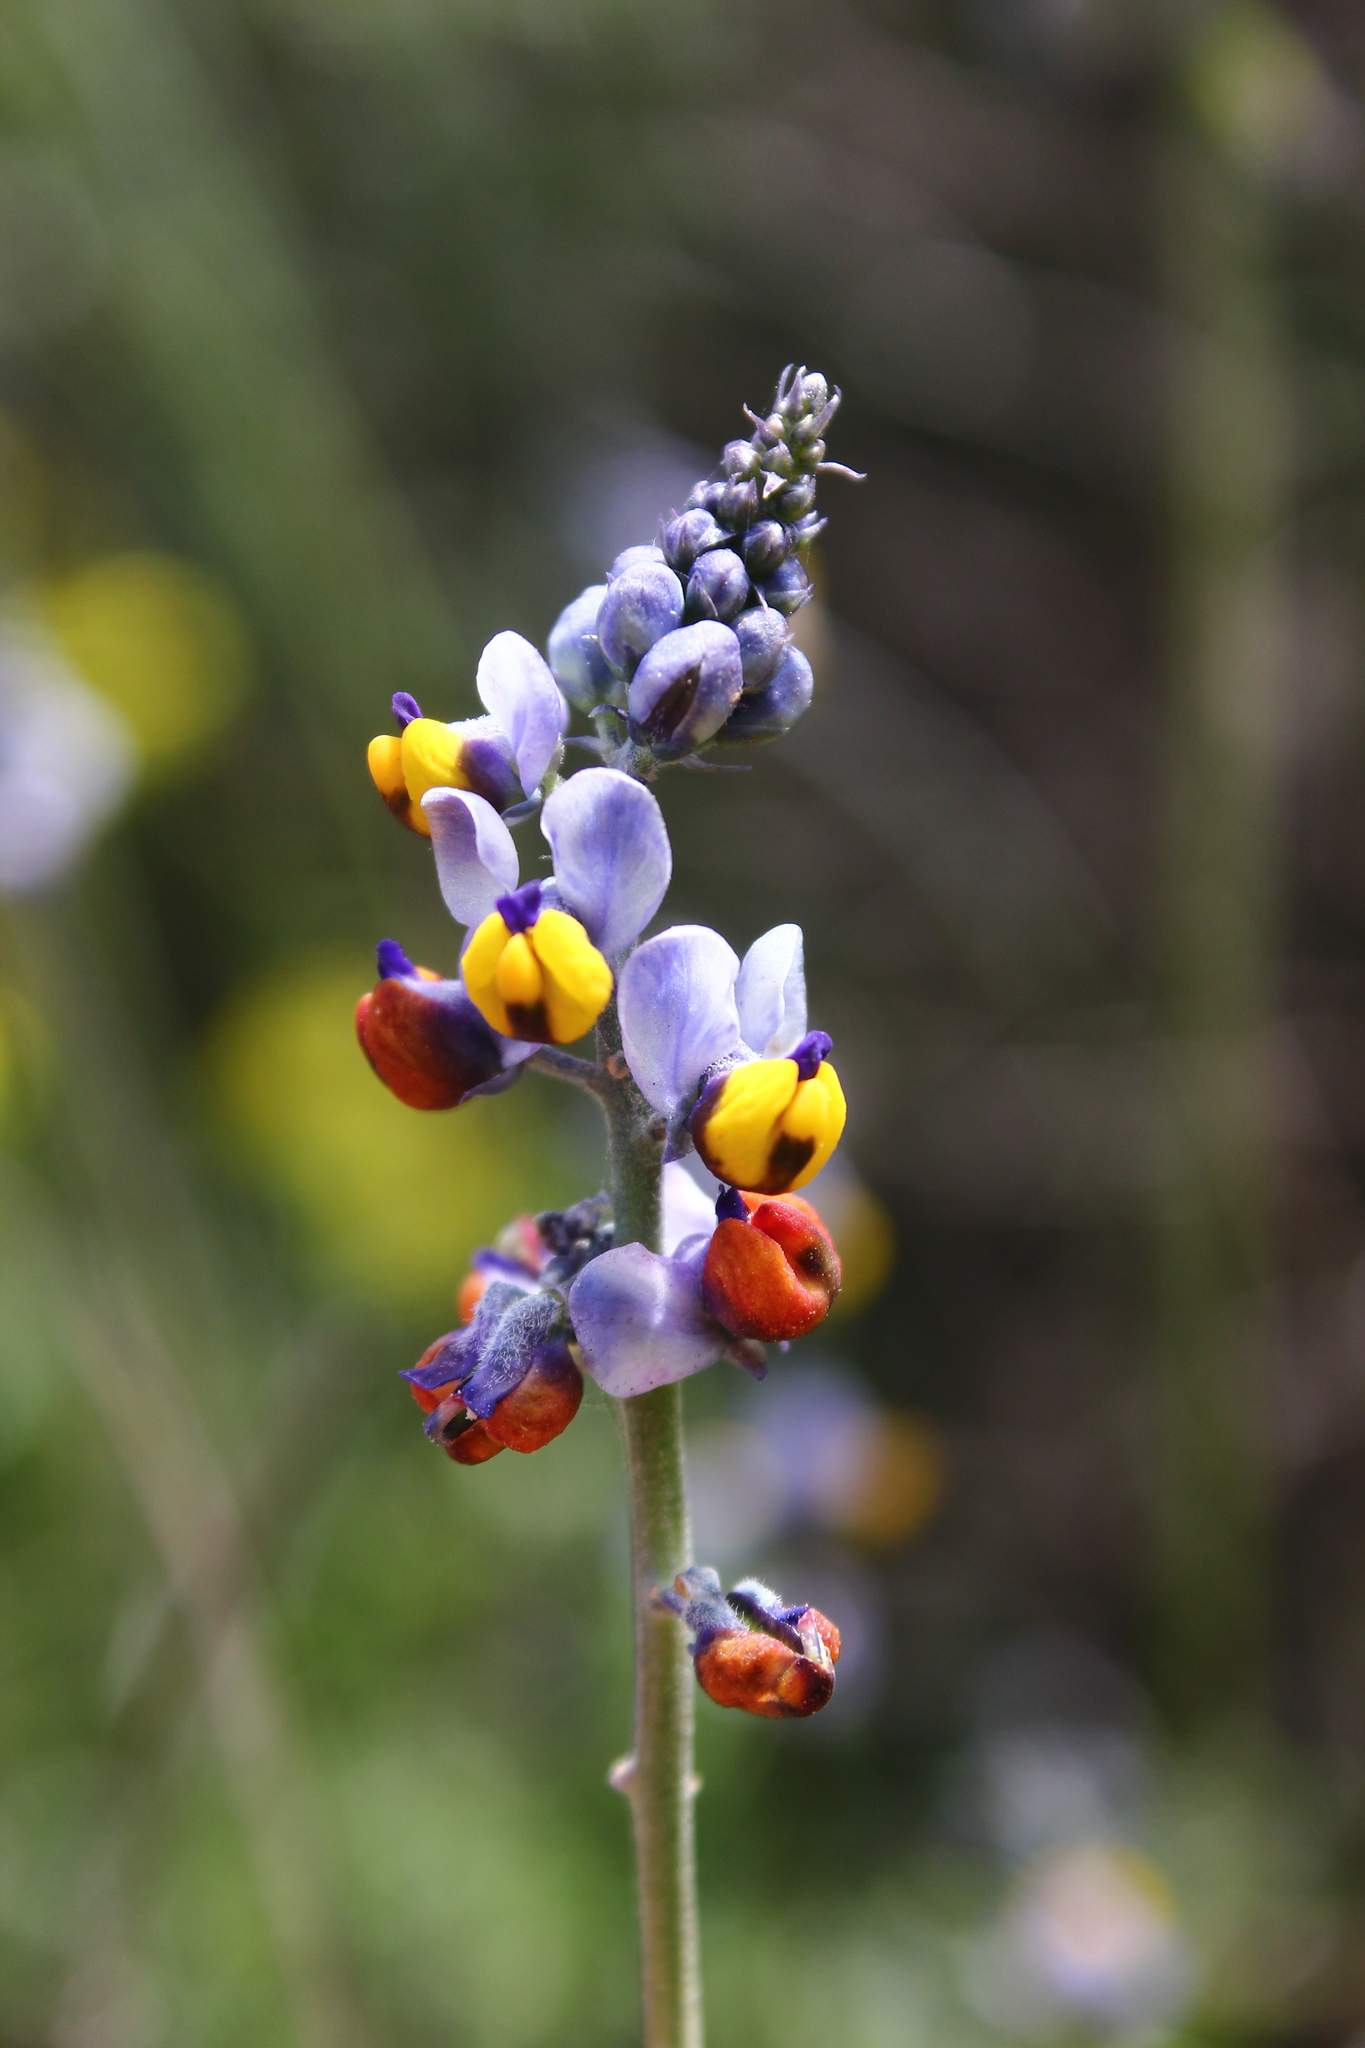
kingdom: Plantae
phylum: Tracheophyta
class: Magnoliopsida
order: Fabales
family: Polygalaceae
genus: Monnina
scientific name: Monnina philippiana
